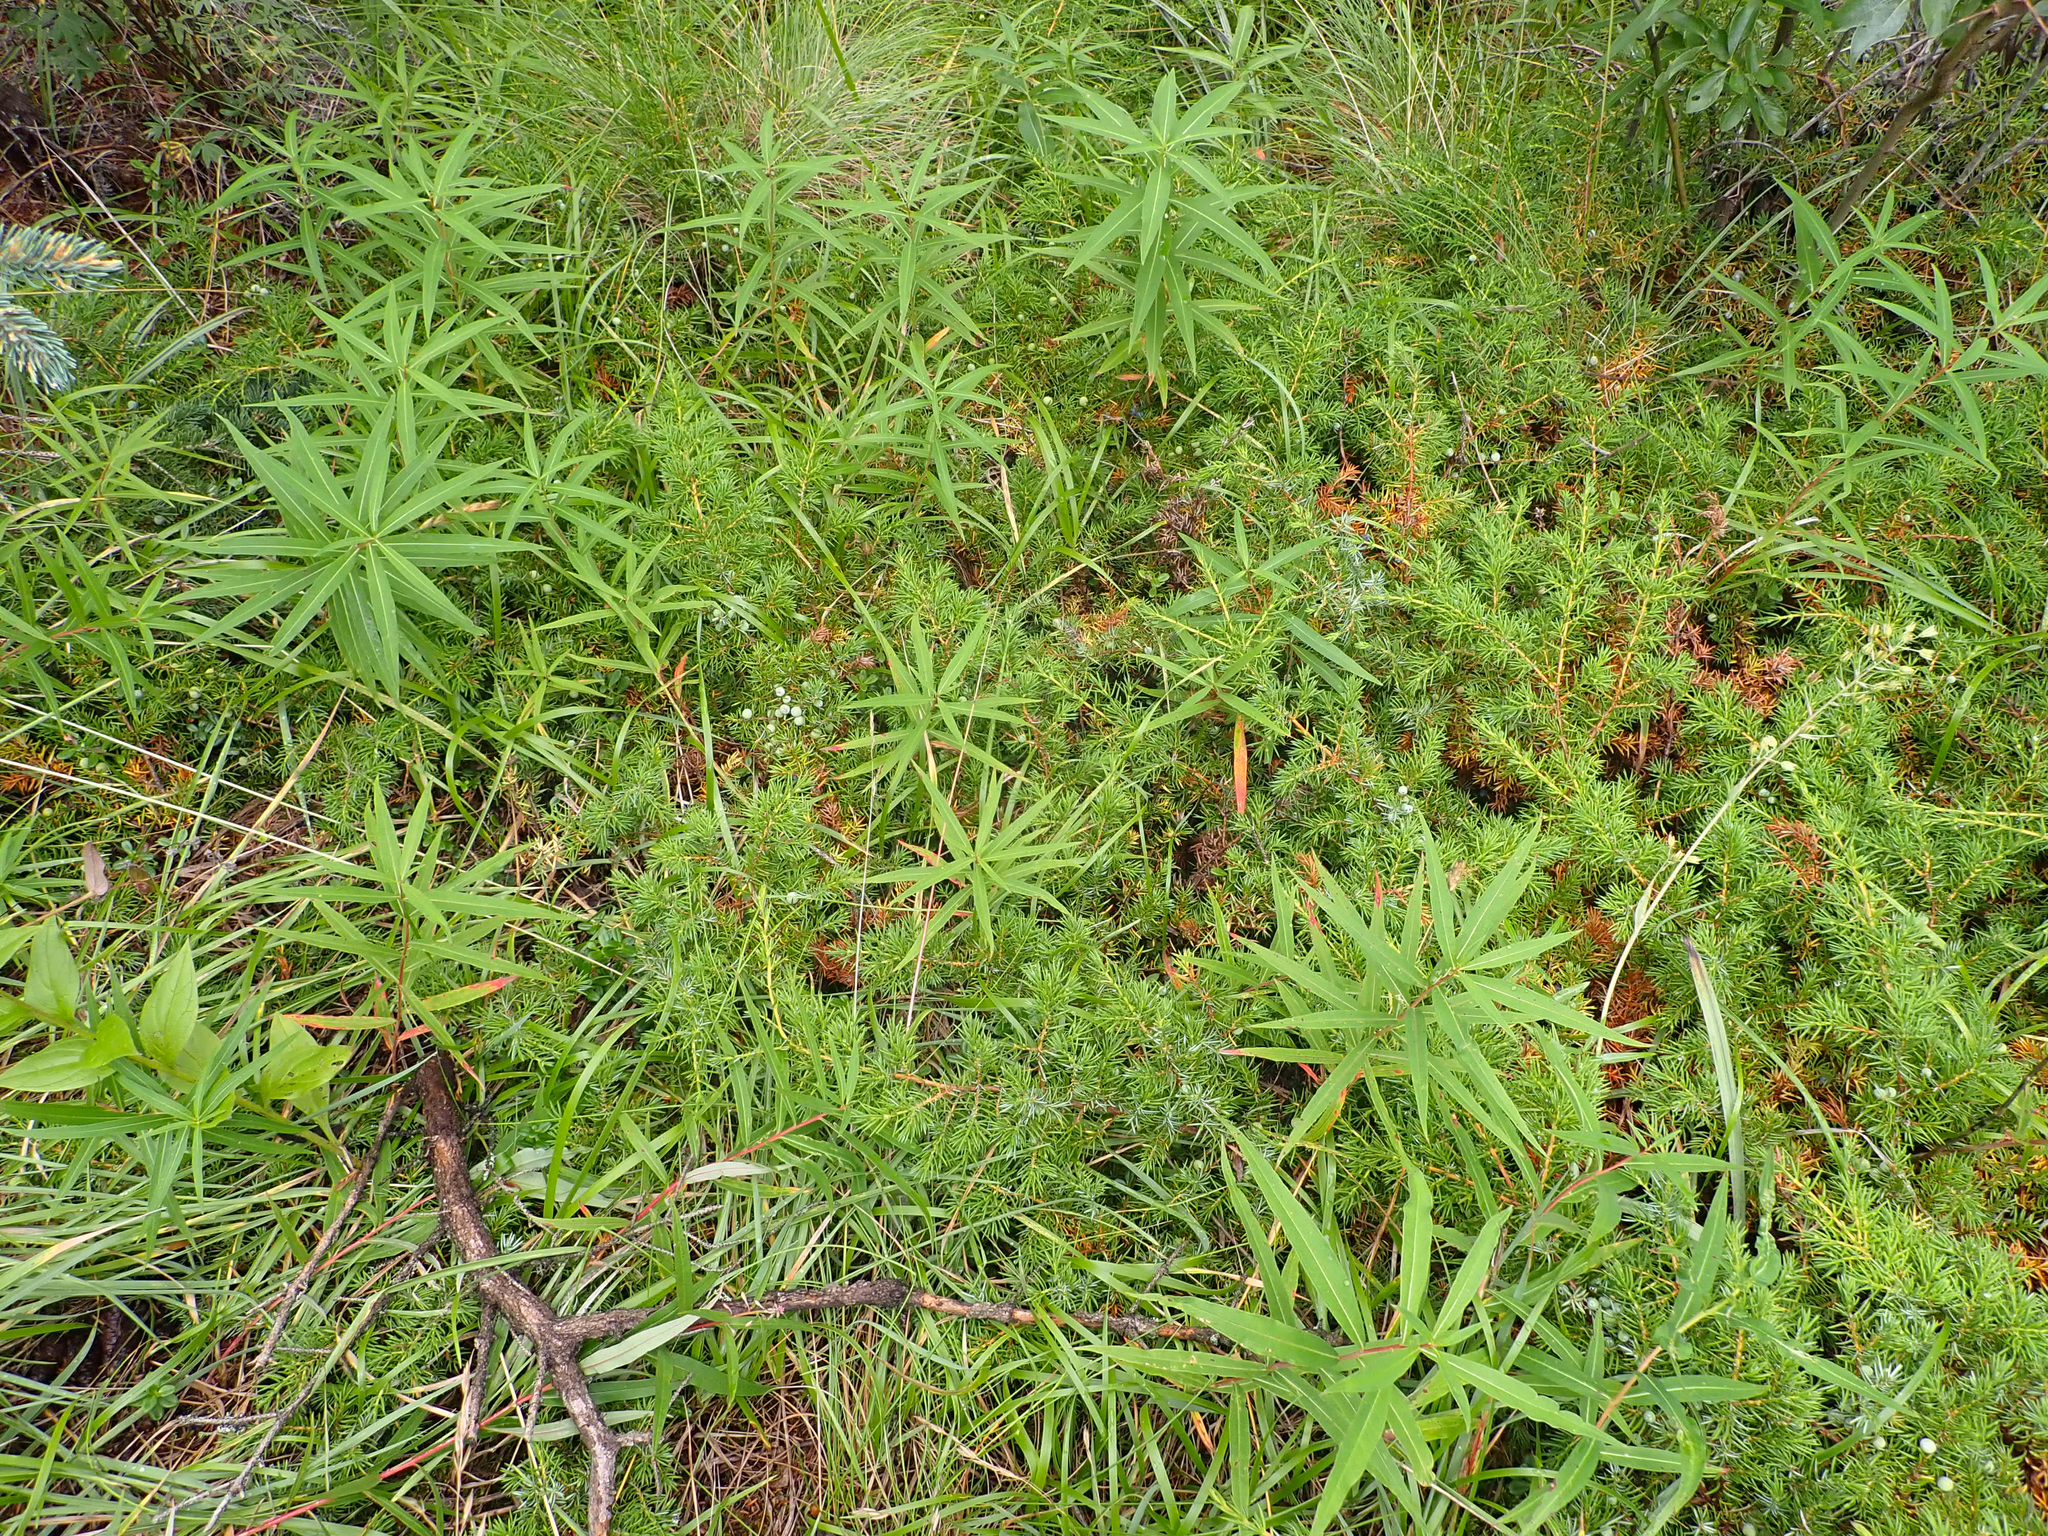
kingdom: Plantae
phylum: Tracheophyta
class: Pinopsida
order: Pinales
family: Cupressaceae
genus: Juniperus
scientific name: Juniperus communis
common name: Common juniper
